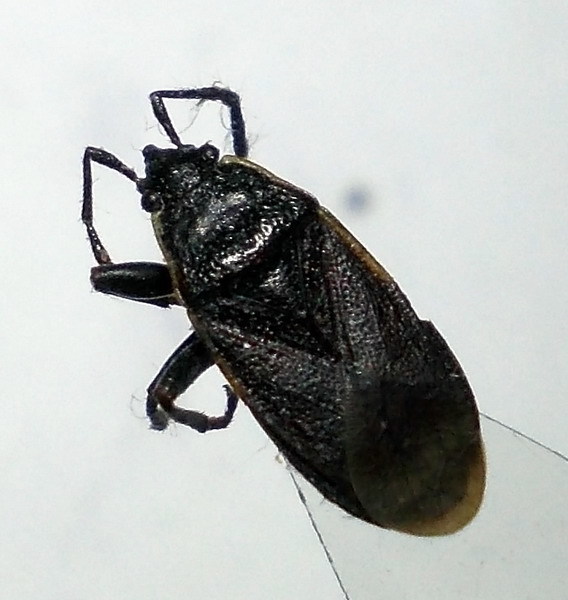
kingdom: Animalia
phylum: Arthropoda
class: Insecta
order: Hemiptera
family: Pyrrhocoridae
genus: Pyrrhocoris
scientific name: Pyrrhocoris marginatus
